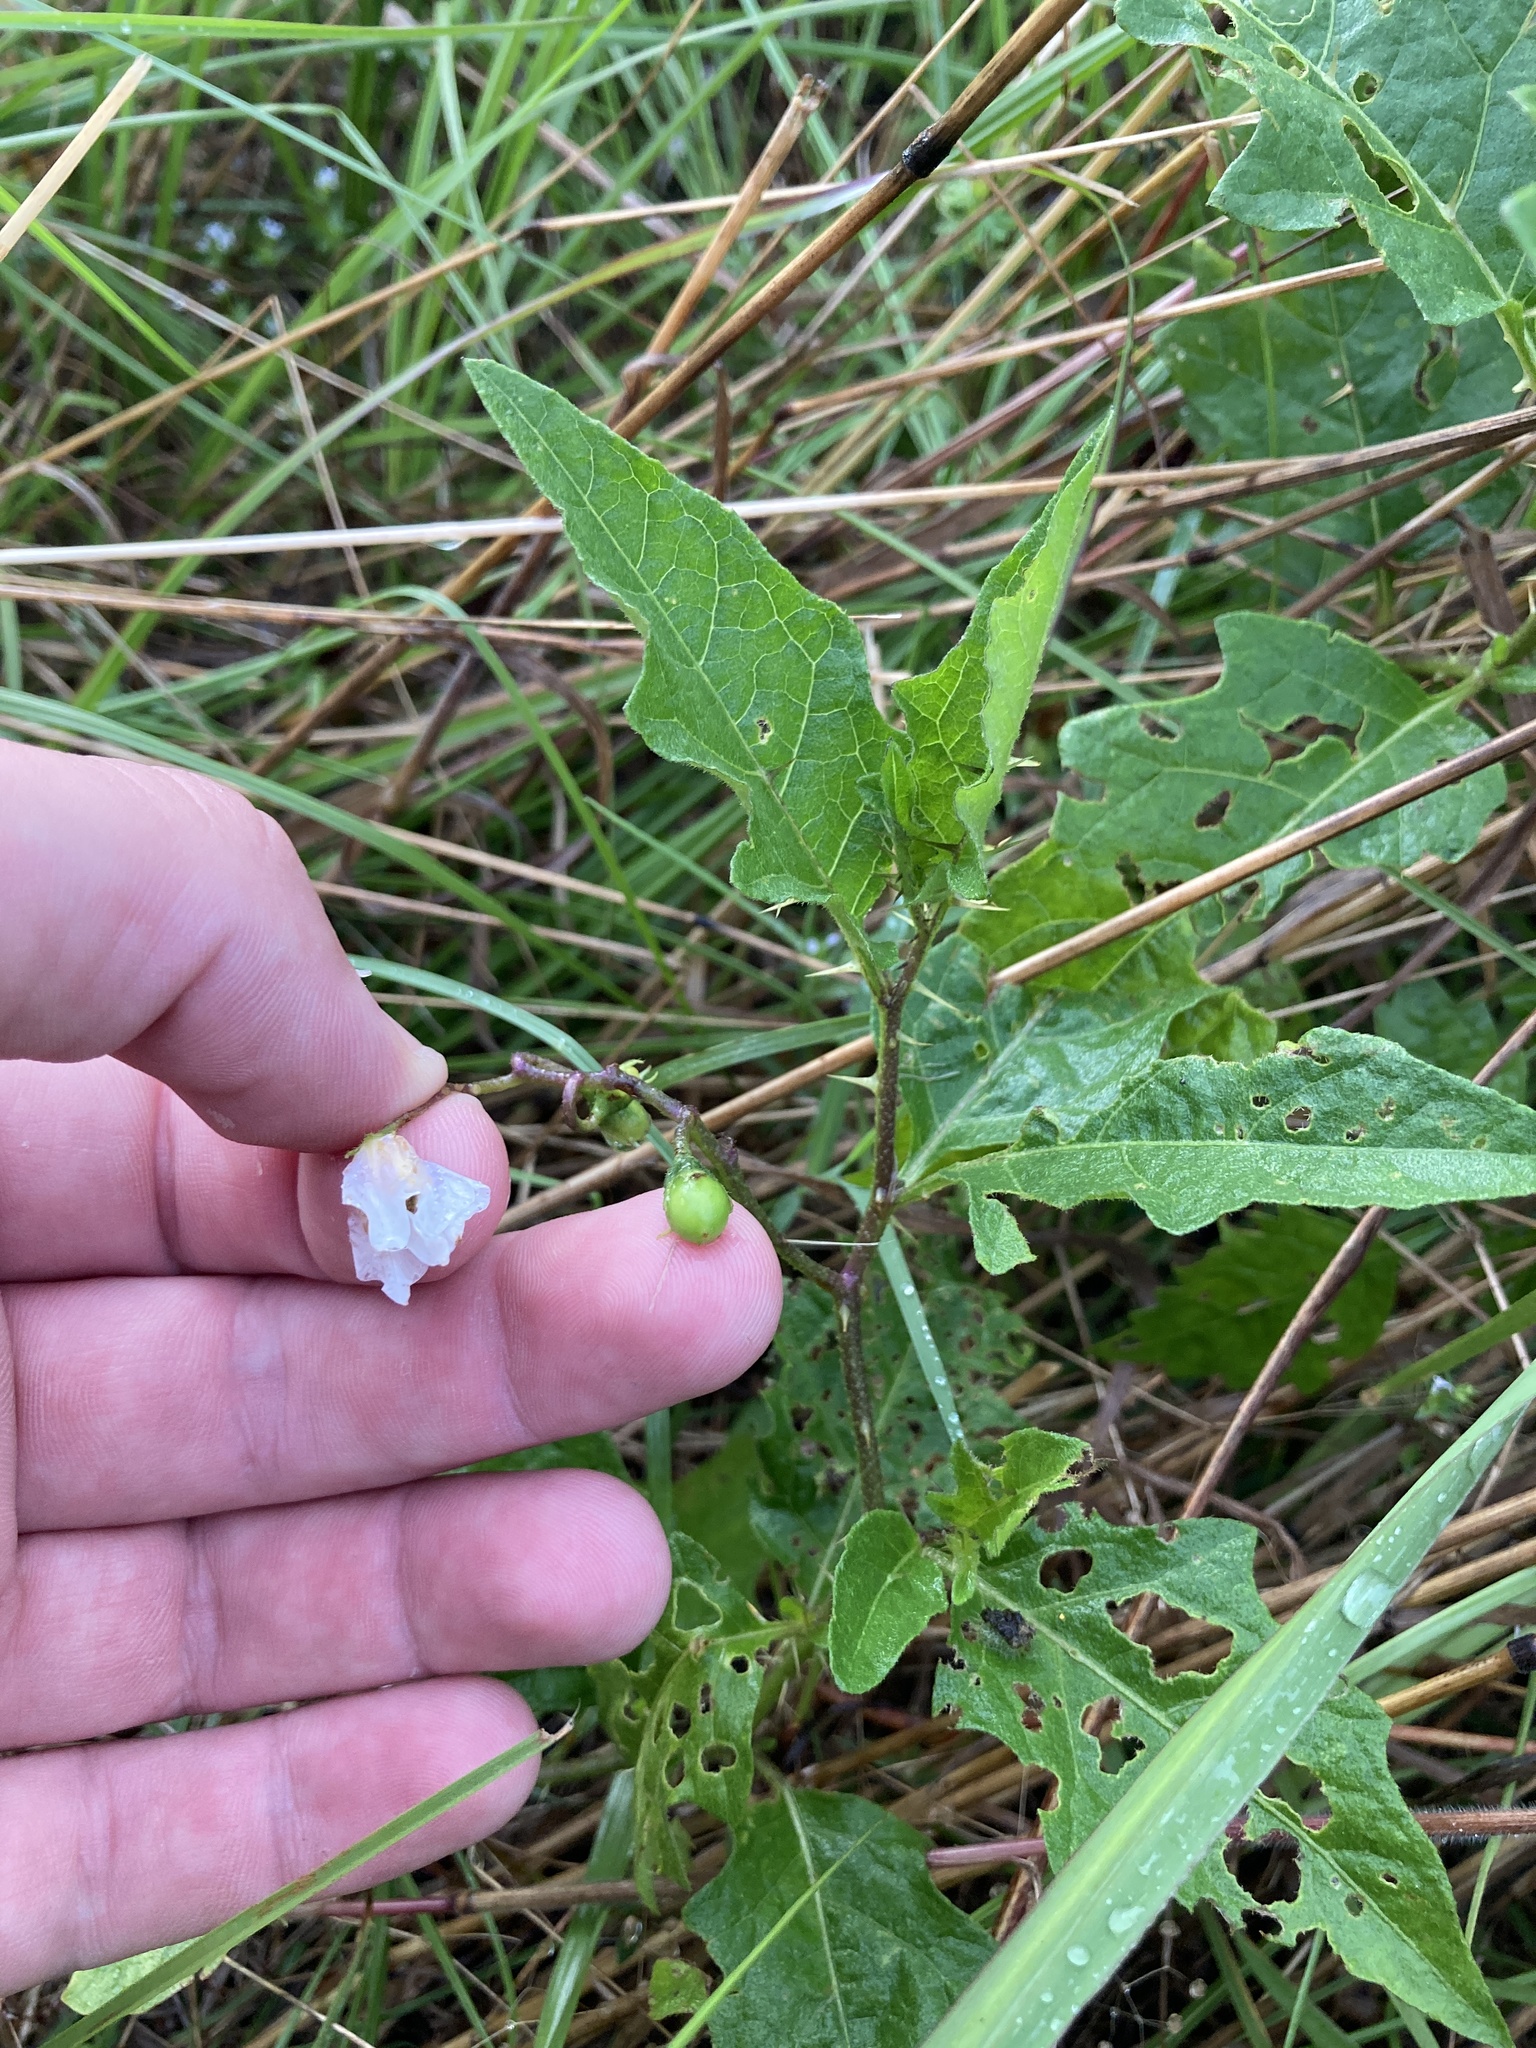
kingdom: Plantae
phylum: Tracheophyta
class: Magnoliopsida
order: Solanales
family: Solanaceae
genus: Solanum
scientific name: Solanum carolinense
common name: Horse-nettle
